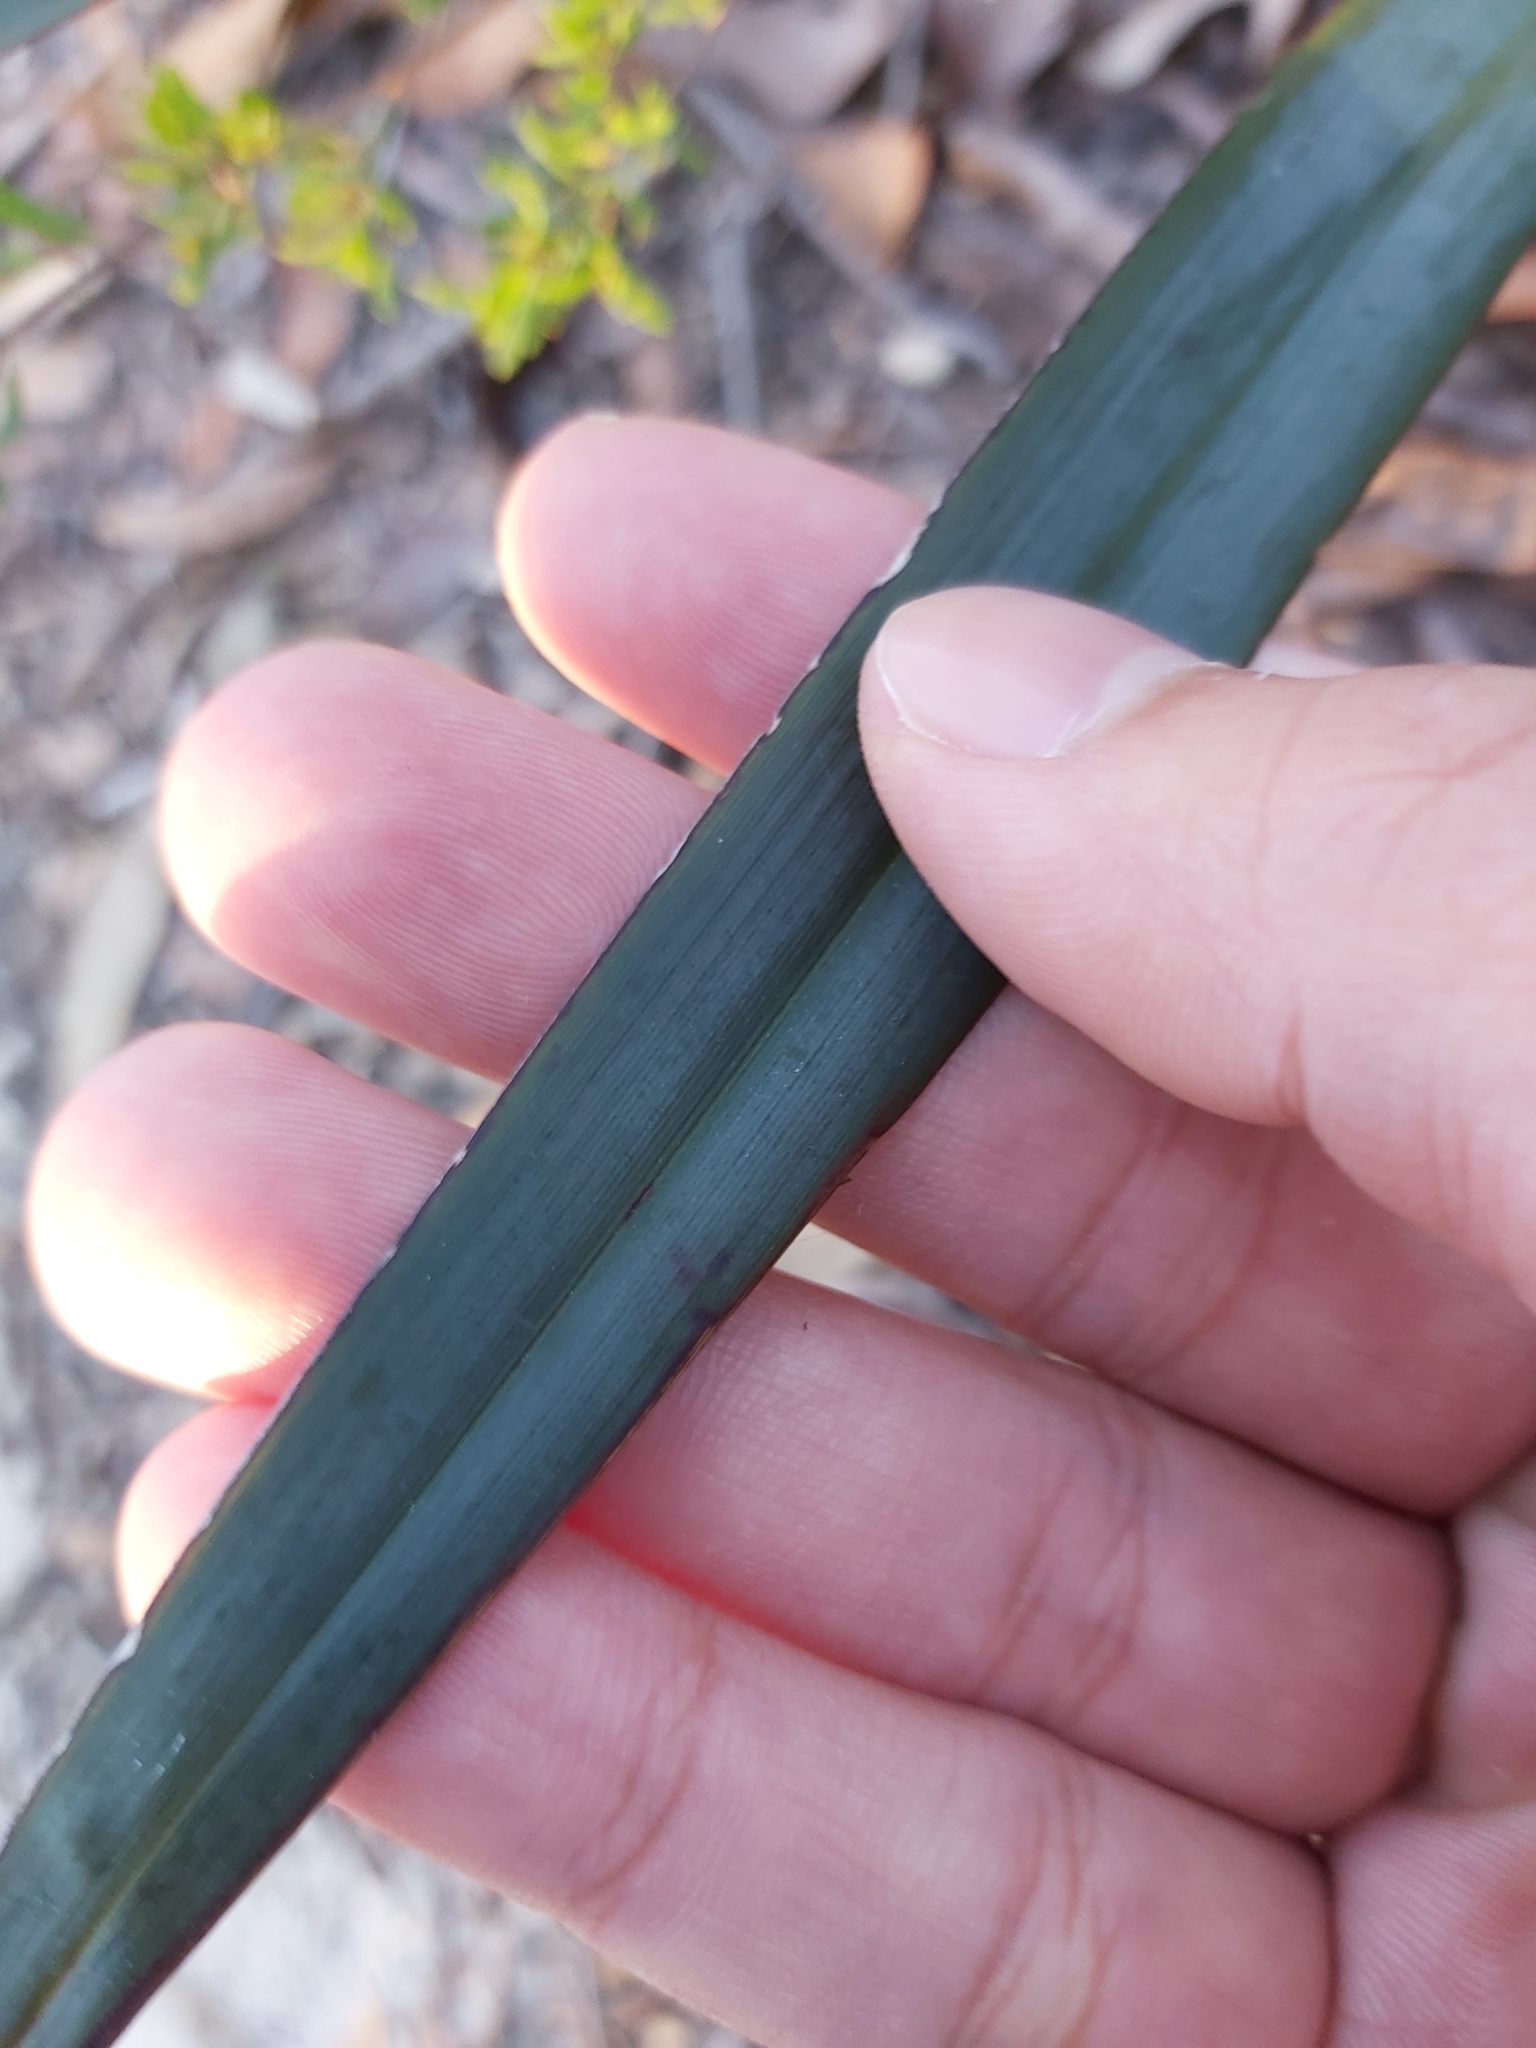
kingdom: Plantae
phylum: Tracheophyta
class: Liliopsida
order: Asparagales
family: Asphodelaceae
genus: Dianella
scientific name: Dianella prunina
